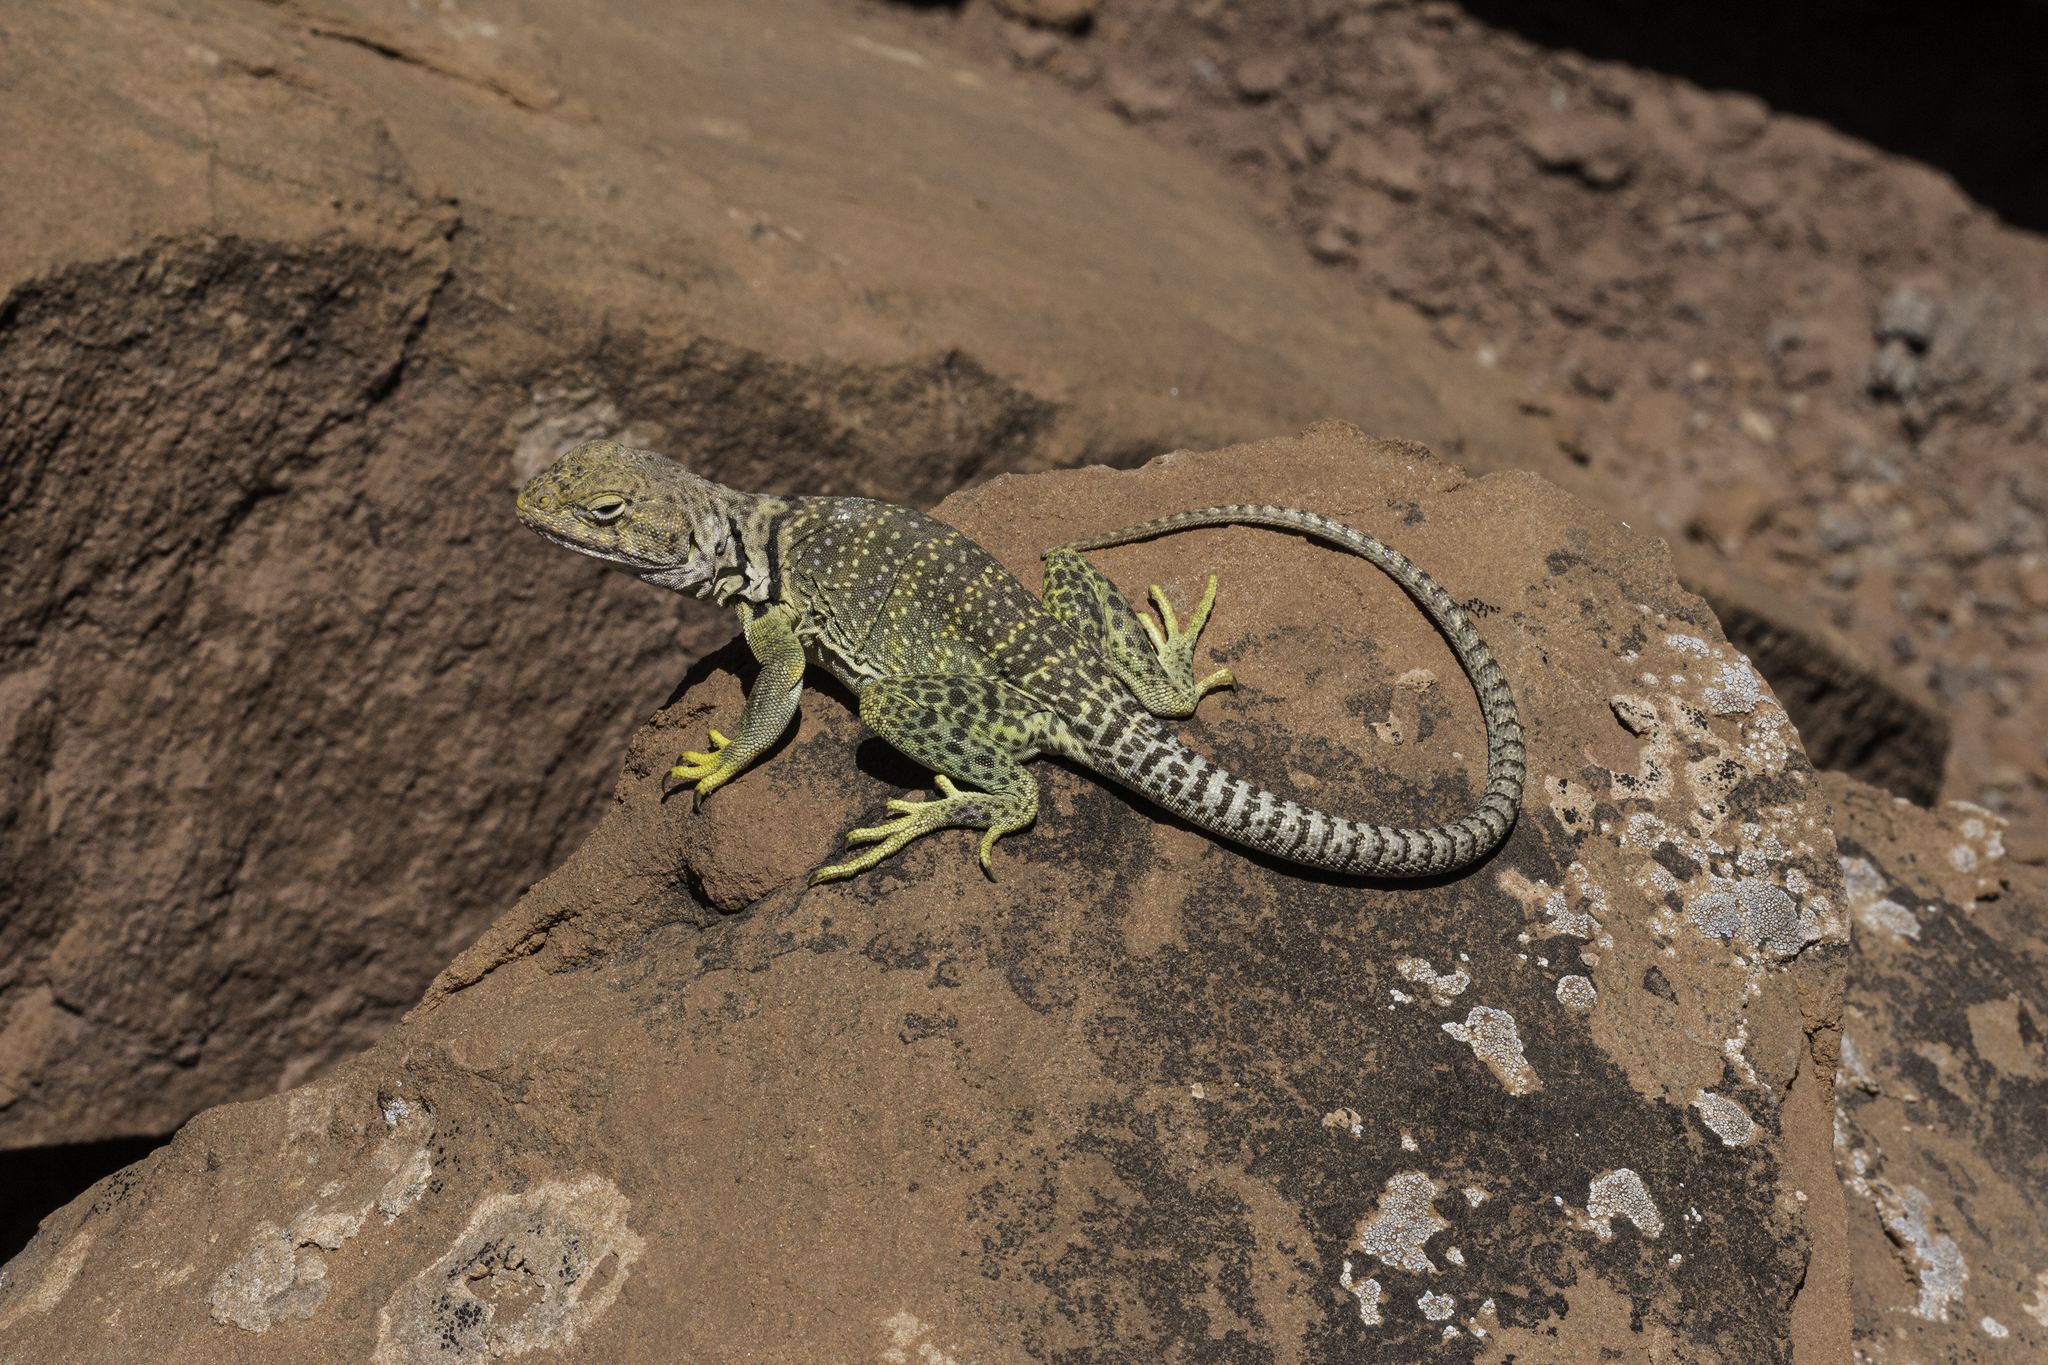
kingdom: Animalia
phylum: Chordata
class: Squamata
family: Crotaphytidae
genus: Crotaphytus
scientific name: Crotaphytus collaris
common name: Collared lizard
